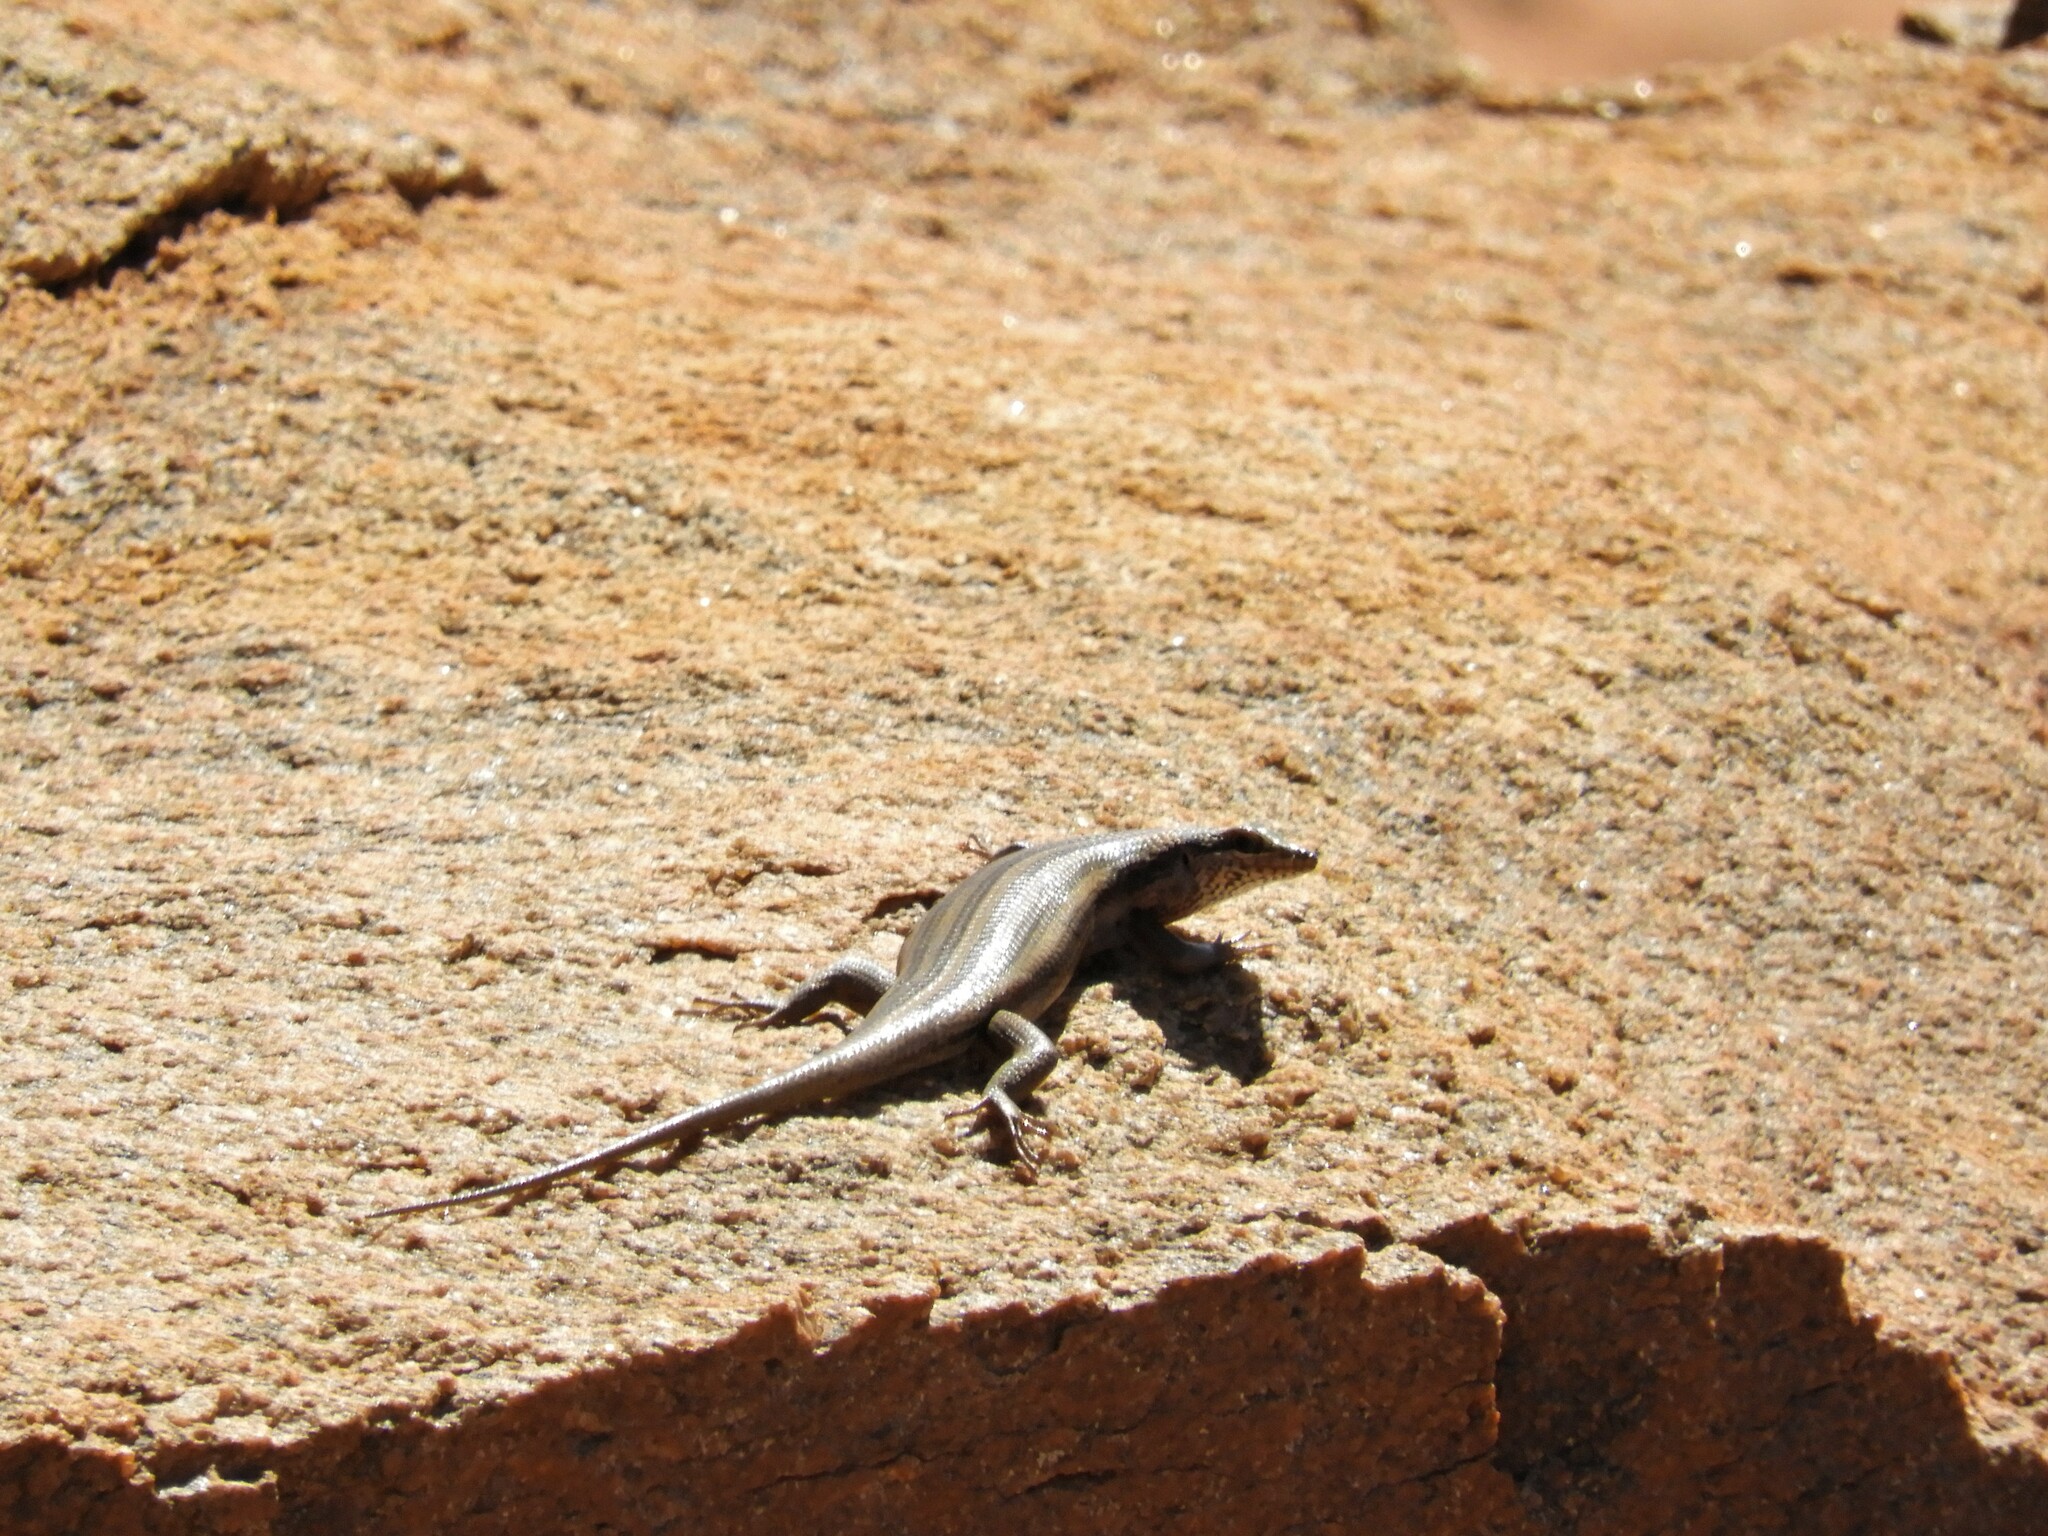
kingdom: Animalia
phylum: Chordata
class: Squamata
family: Scincidae
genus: Trachylepis
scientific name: Trachylepis sulcata
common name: Western rock skink
